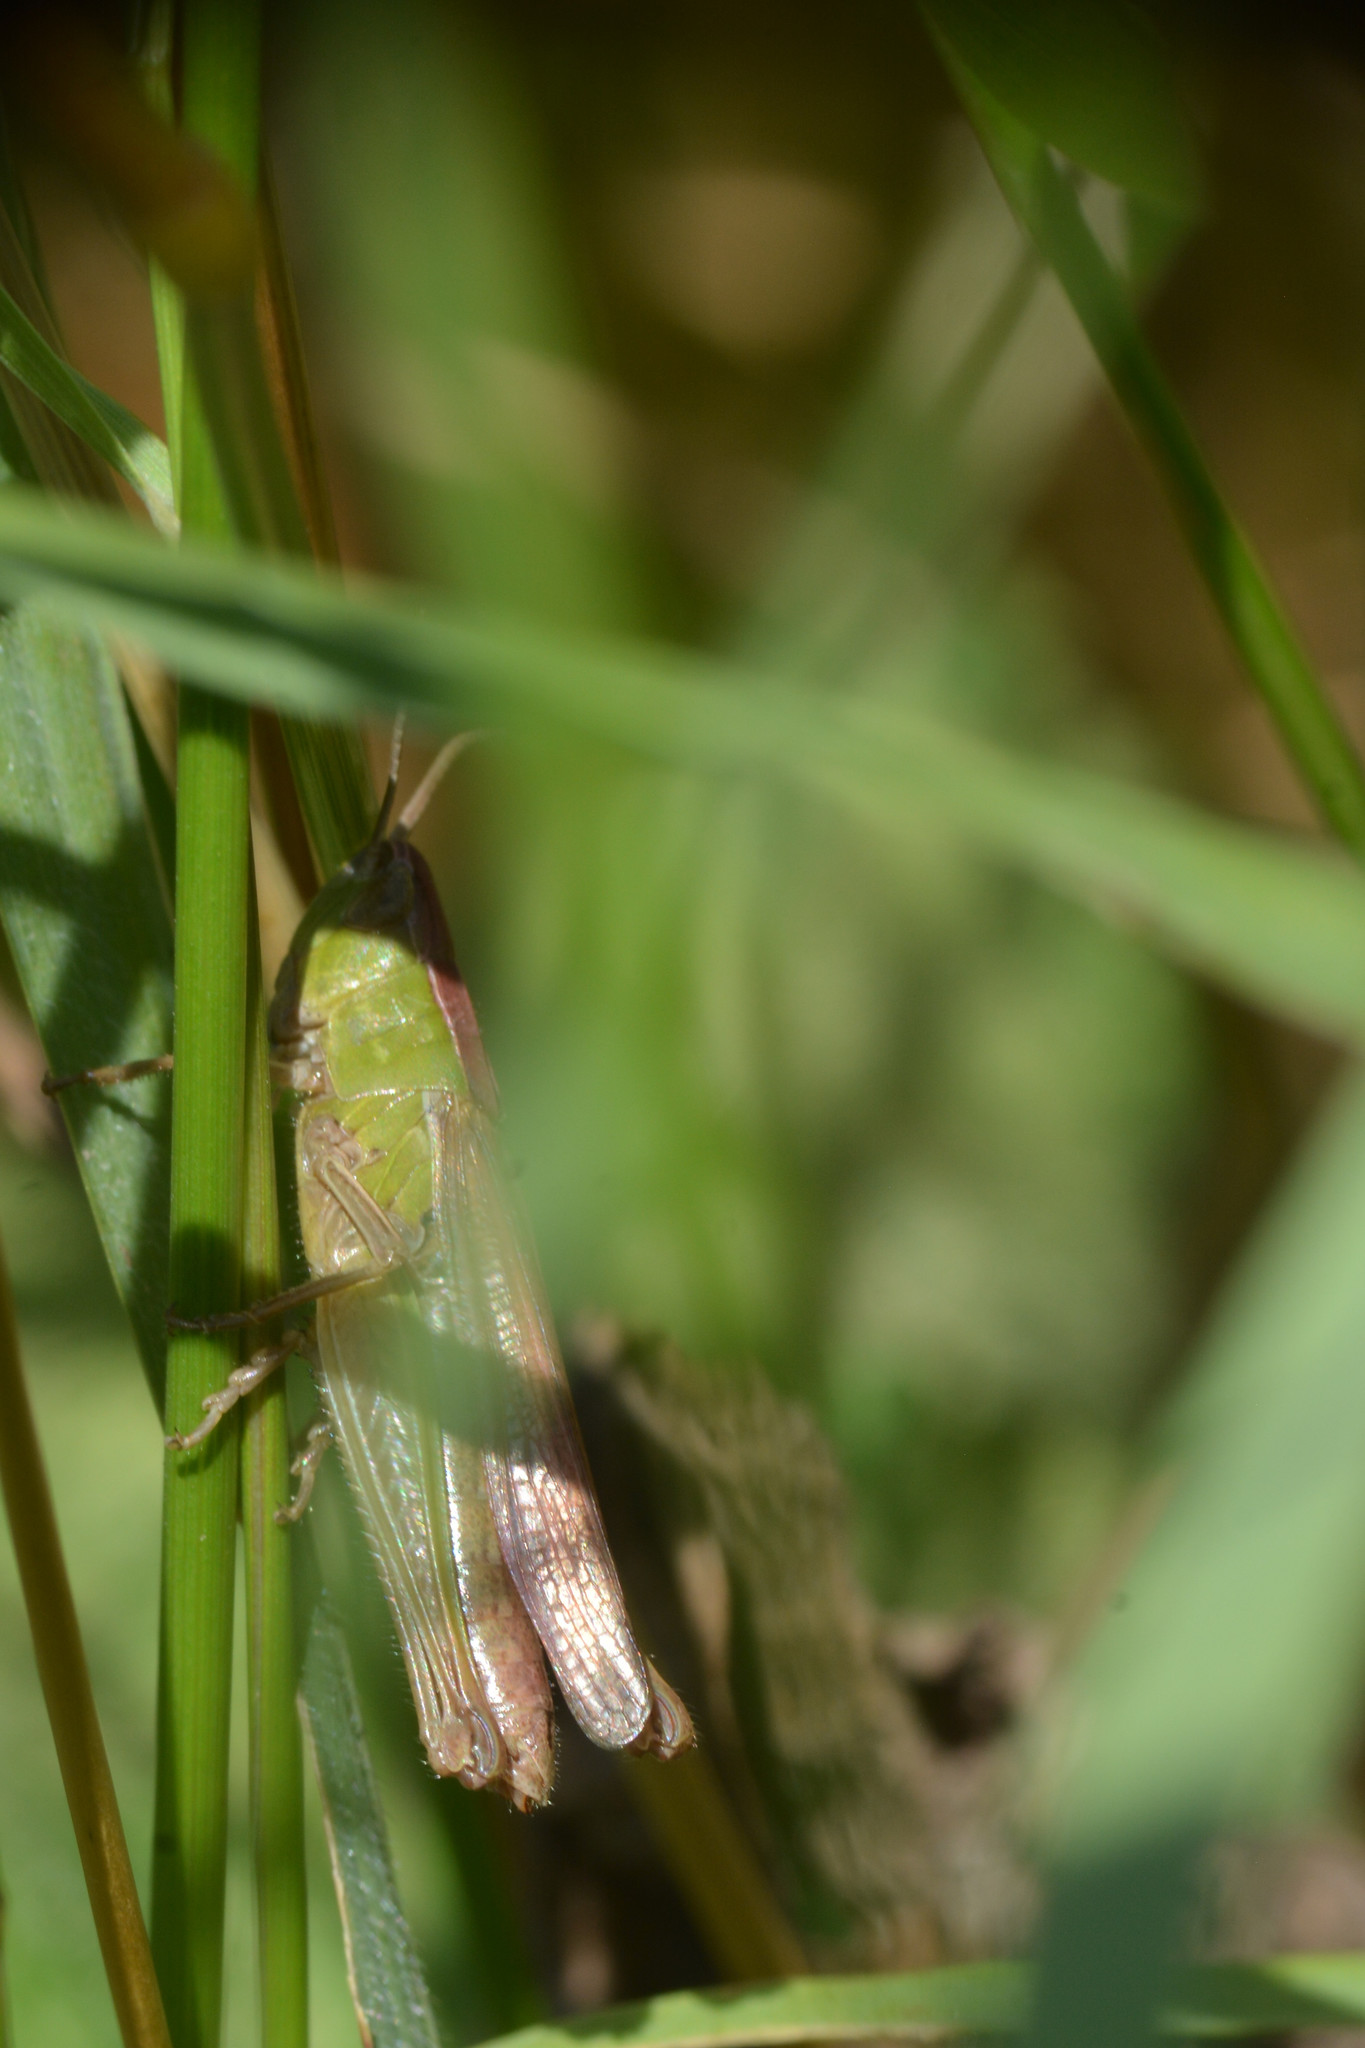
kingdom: Animalia
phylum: Arthropoda
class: Insecta
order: Orthoptera
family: Acrididae
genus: Chorthippus
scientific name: Chorthippus albomarginatus
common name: Lesser marsh grasshopper
